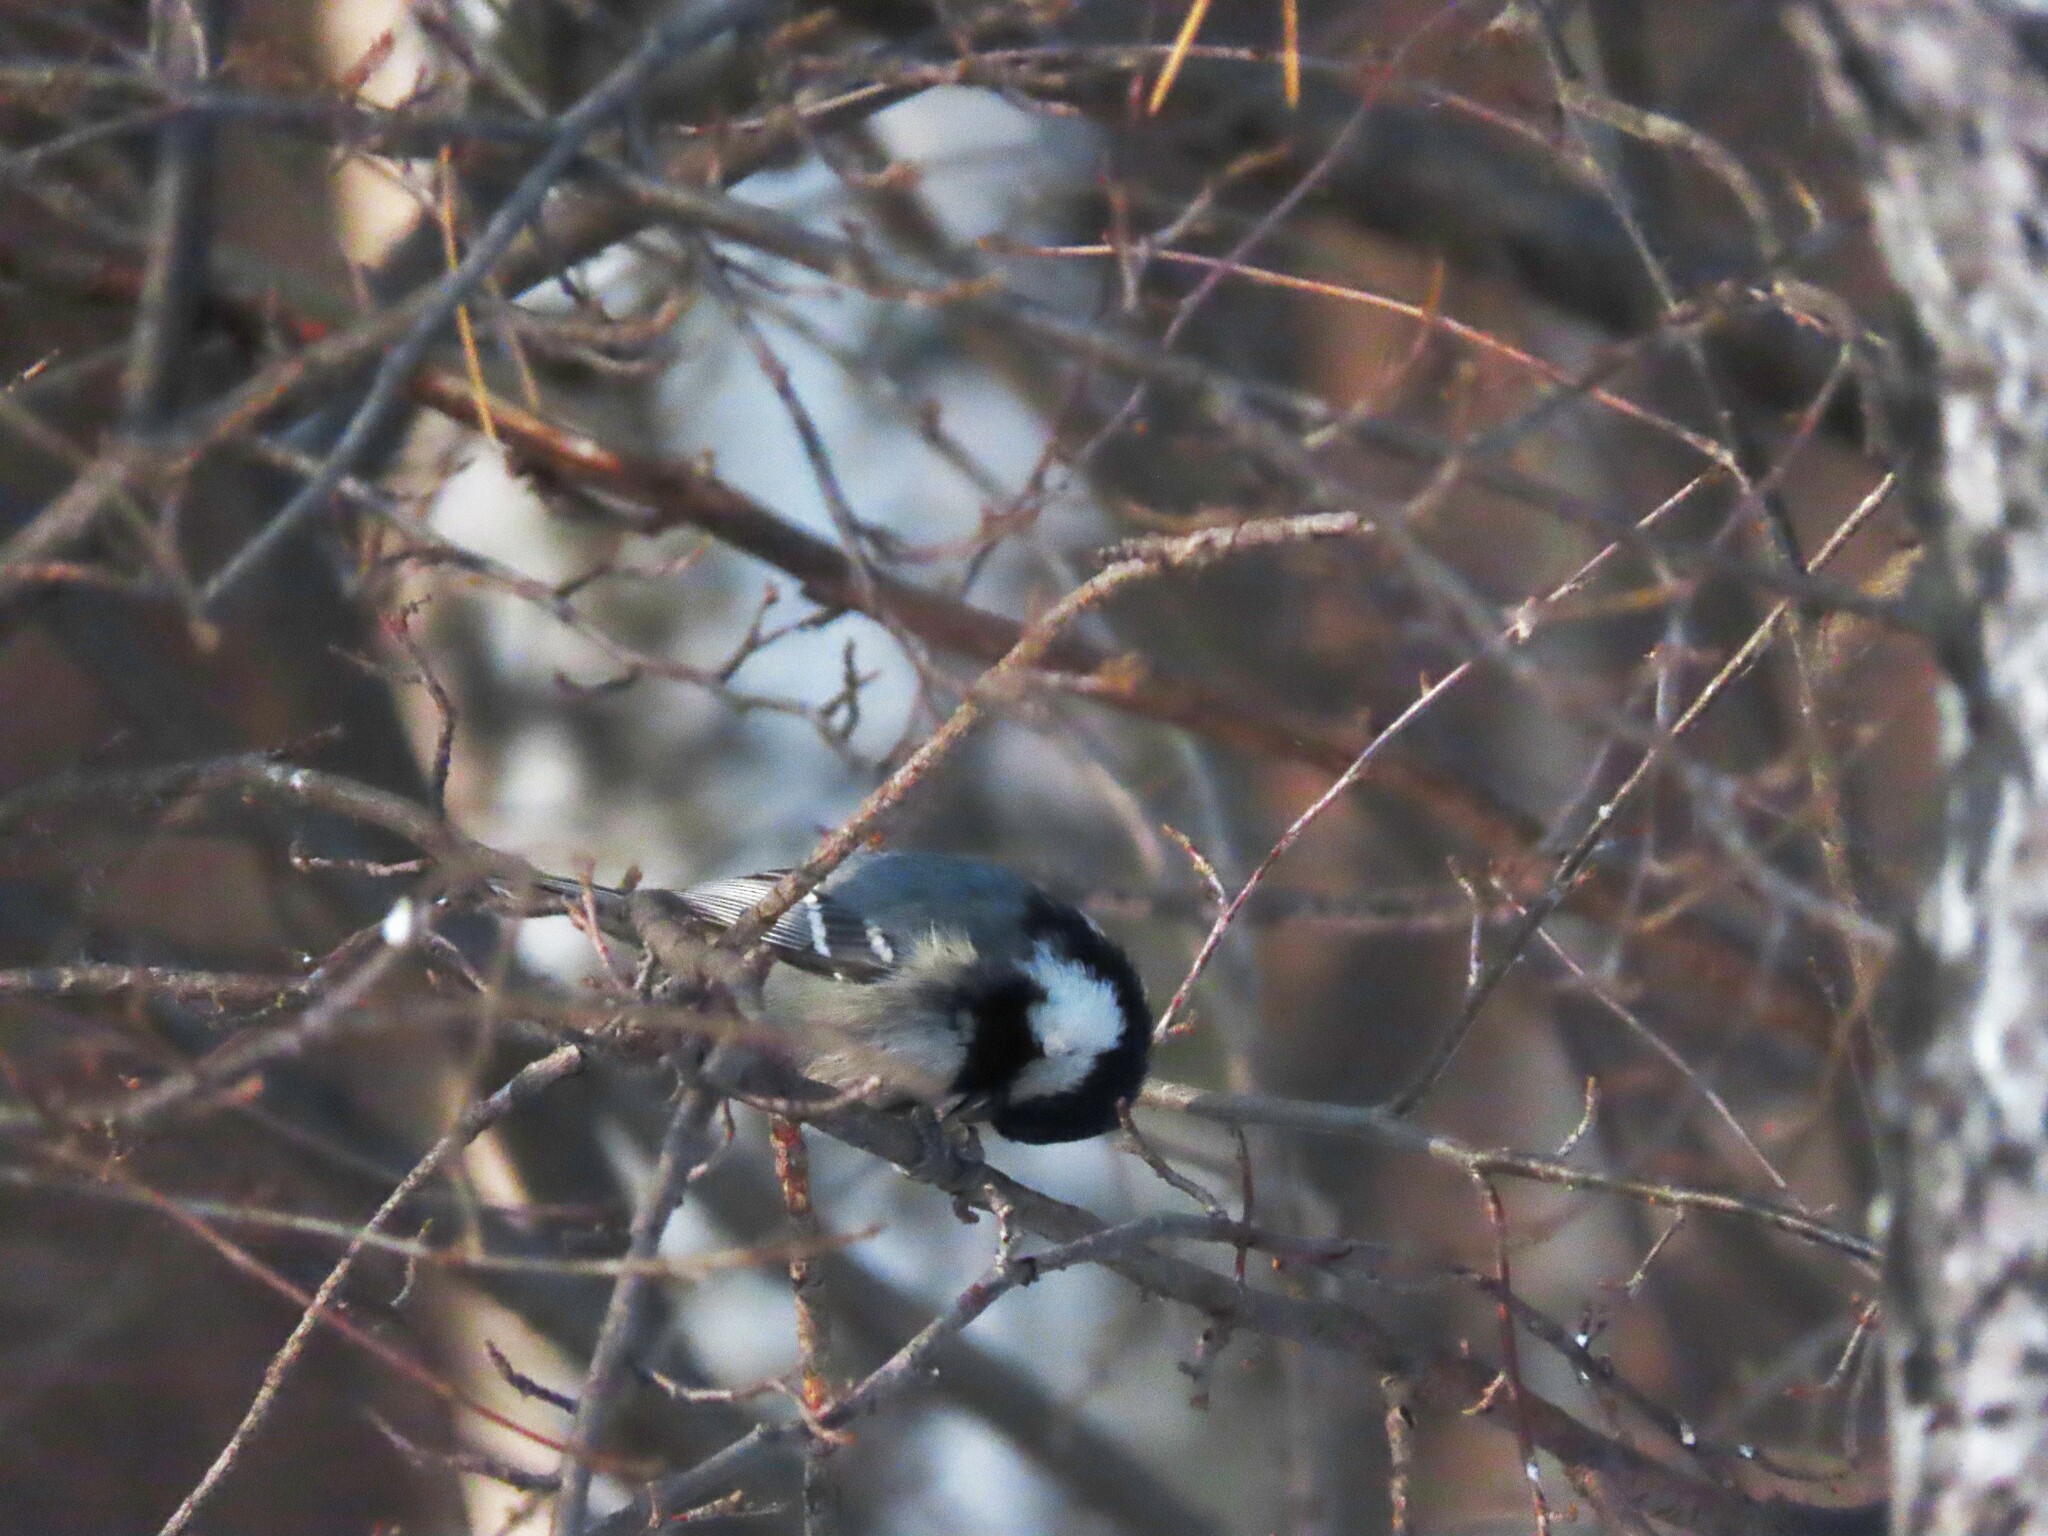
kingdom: Animalia
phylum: Chordata
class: Aves
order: Passeriformes
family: Paridae
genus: Periparus
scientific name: Periparus ater
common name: Coal tit
